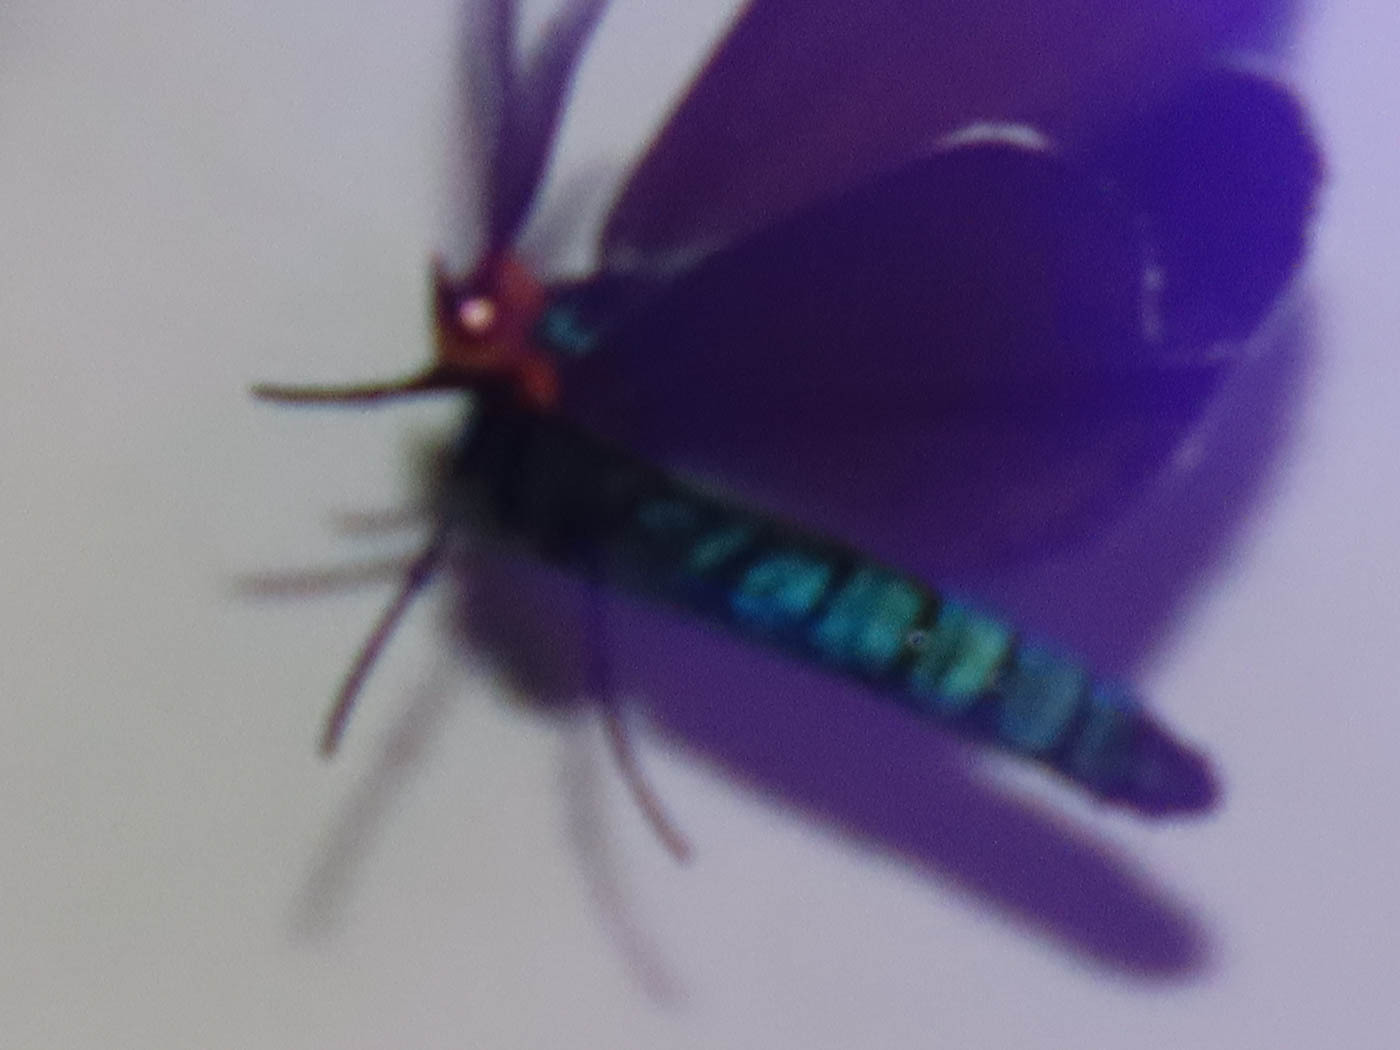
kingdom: Animalia
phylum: Arthropoda
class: Insecta
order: Lepidoptera
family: Erebidae
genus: Ctenucha
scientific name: Ctenucha virginica
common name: Virginia ctenucha moth
